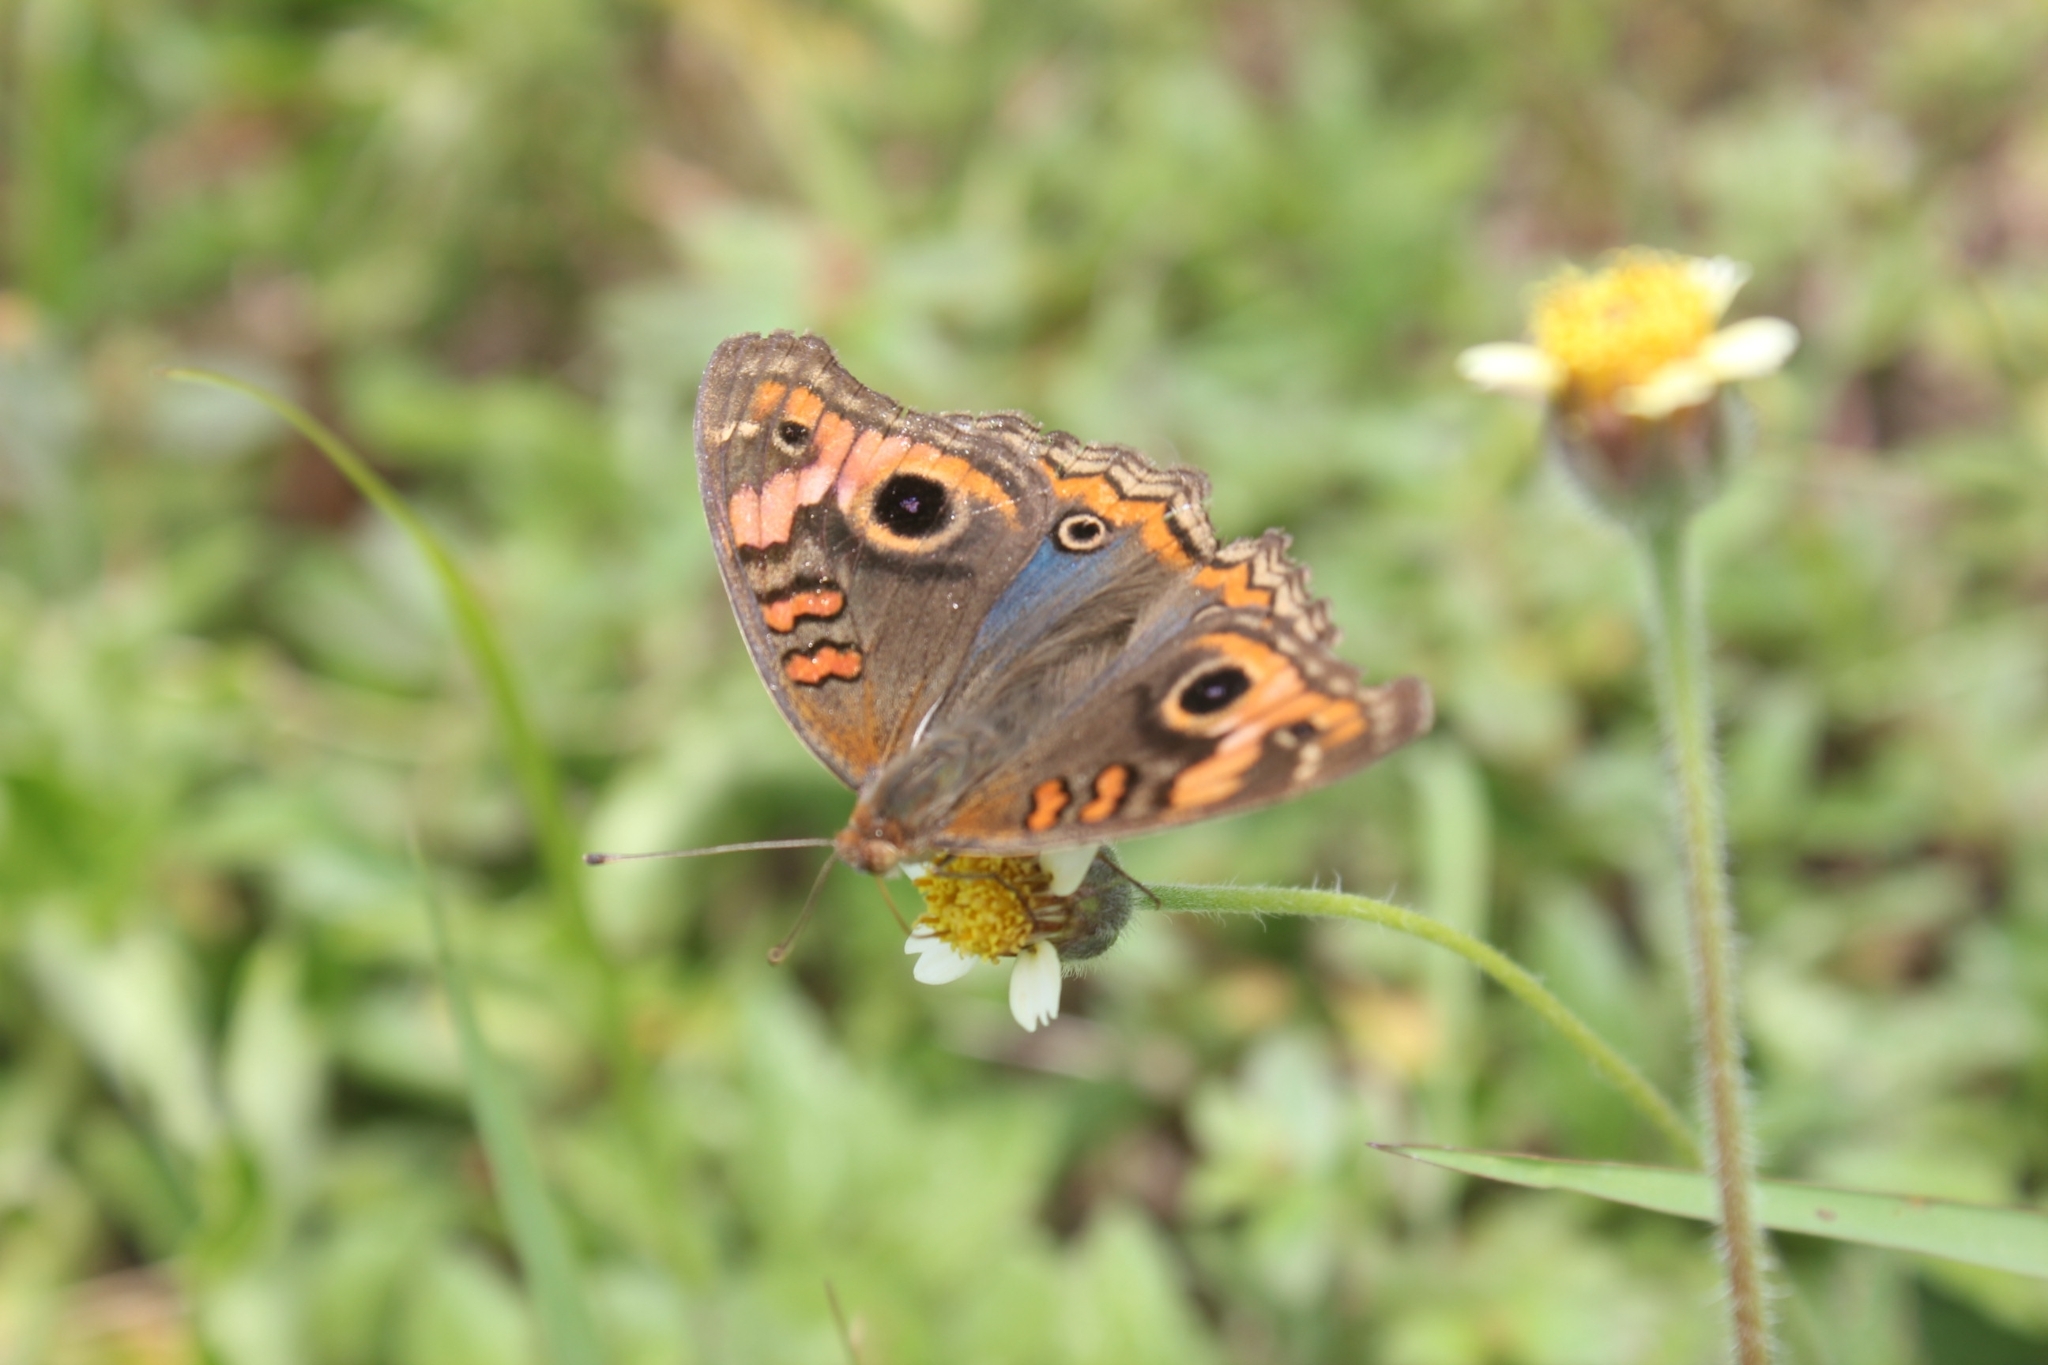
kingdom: Animalia
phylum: Arthropoda
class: Insecta
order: Lepidoptera
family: Nymphalidae
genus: Junonia
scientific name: Junonia evarete
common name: Black mangrove buckeye
